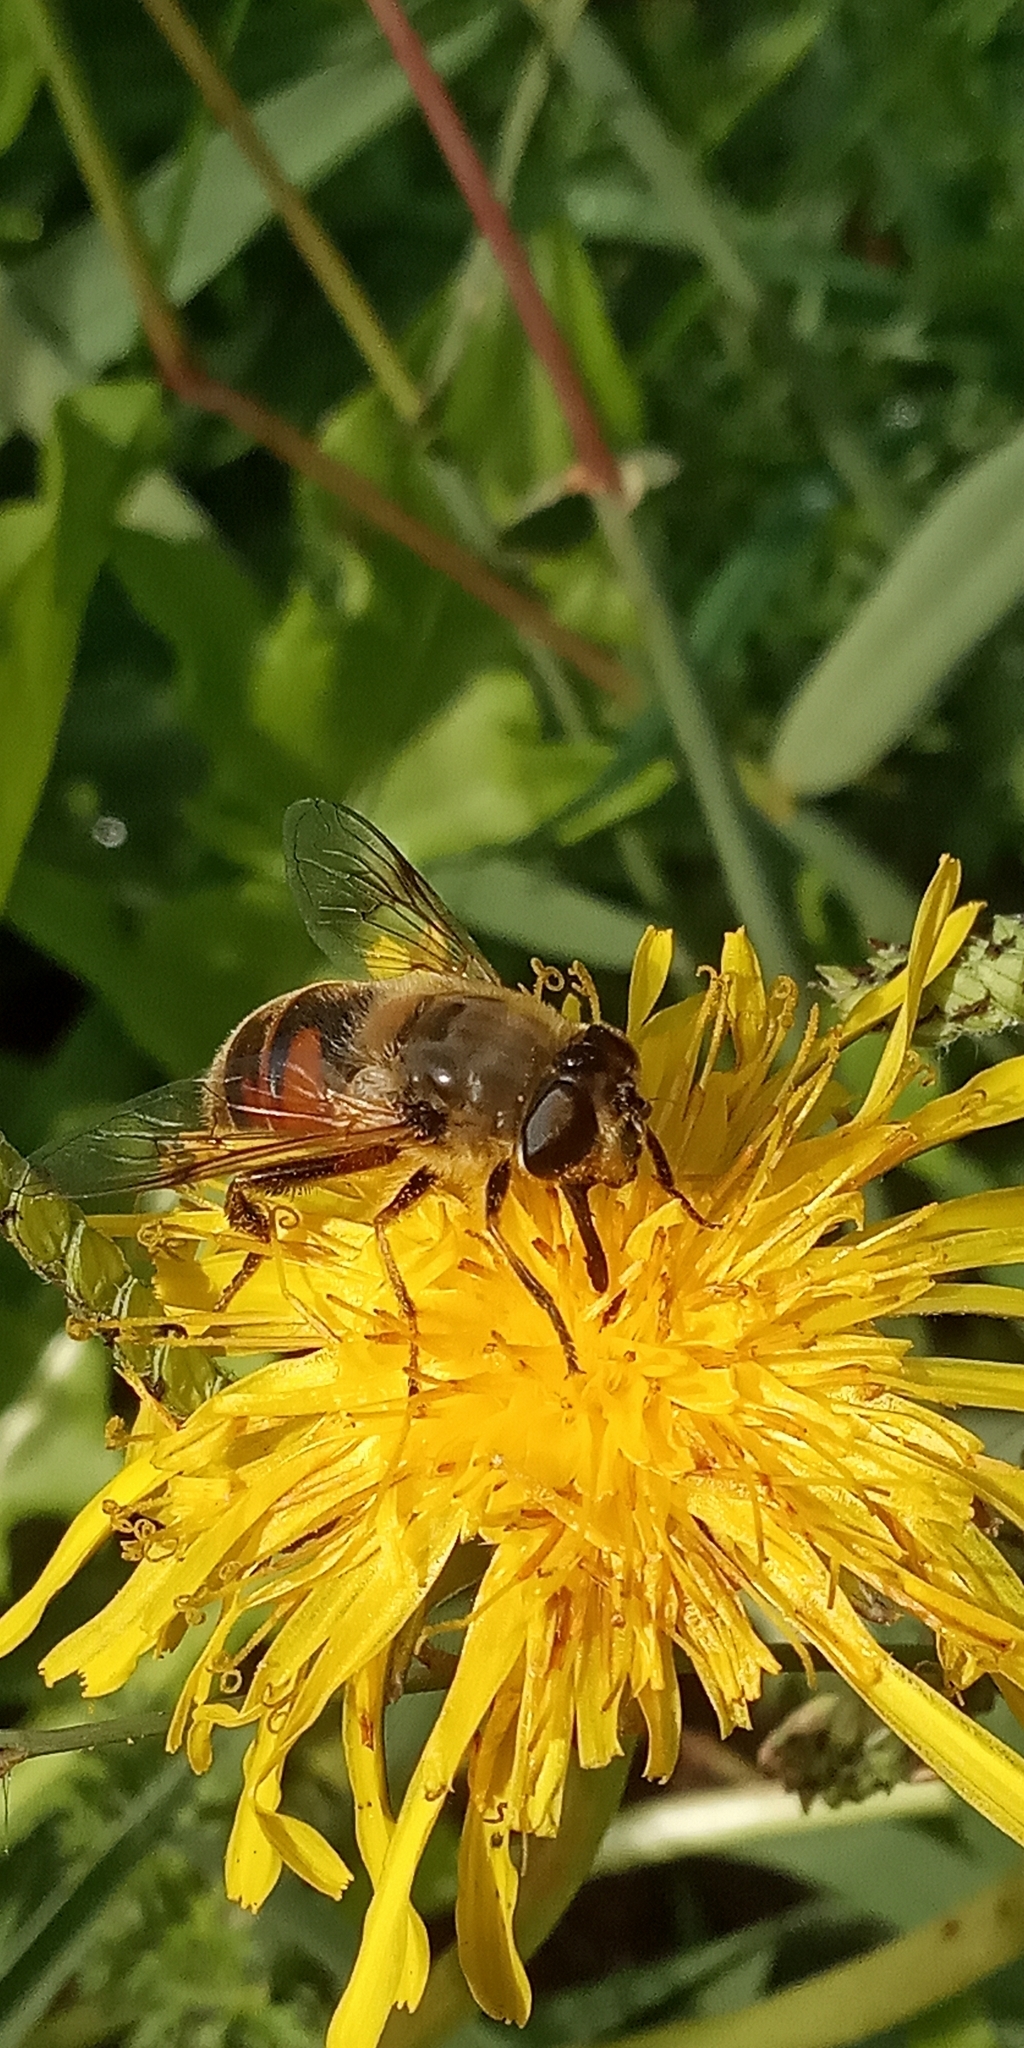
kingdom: Animalia
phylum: Arthropoda
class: Insecta
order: Diptera
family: Syrphidae
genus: Eristalis
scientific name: Eristalis tenax
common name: Drone fly
